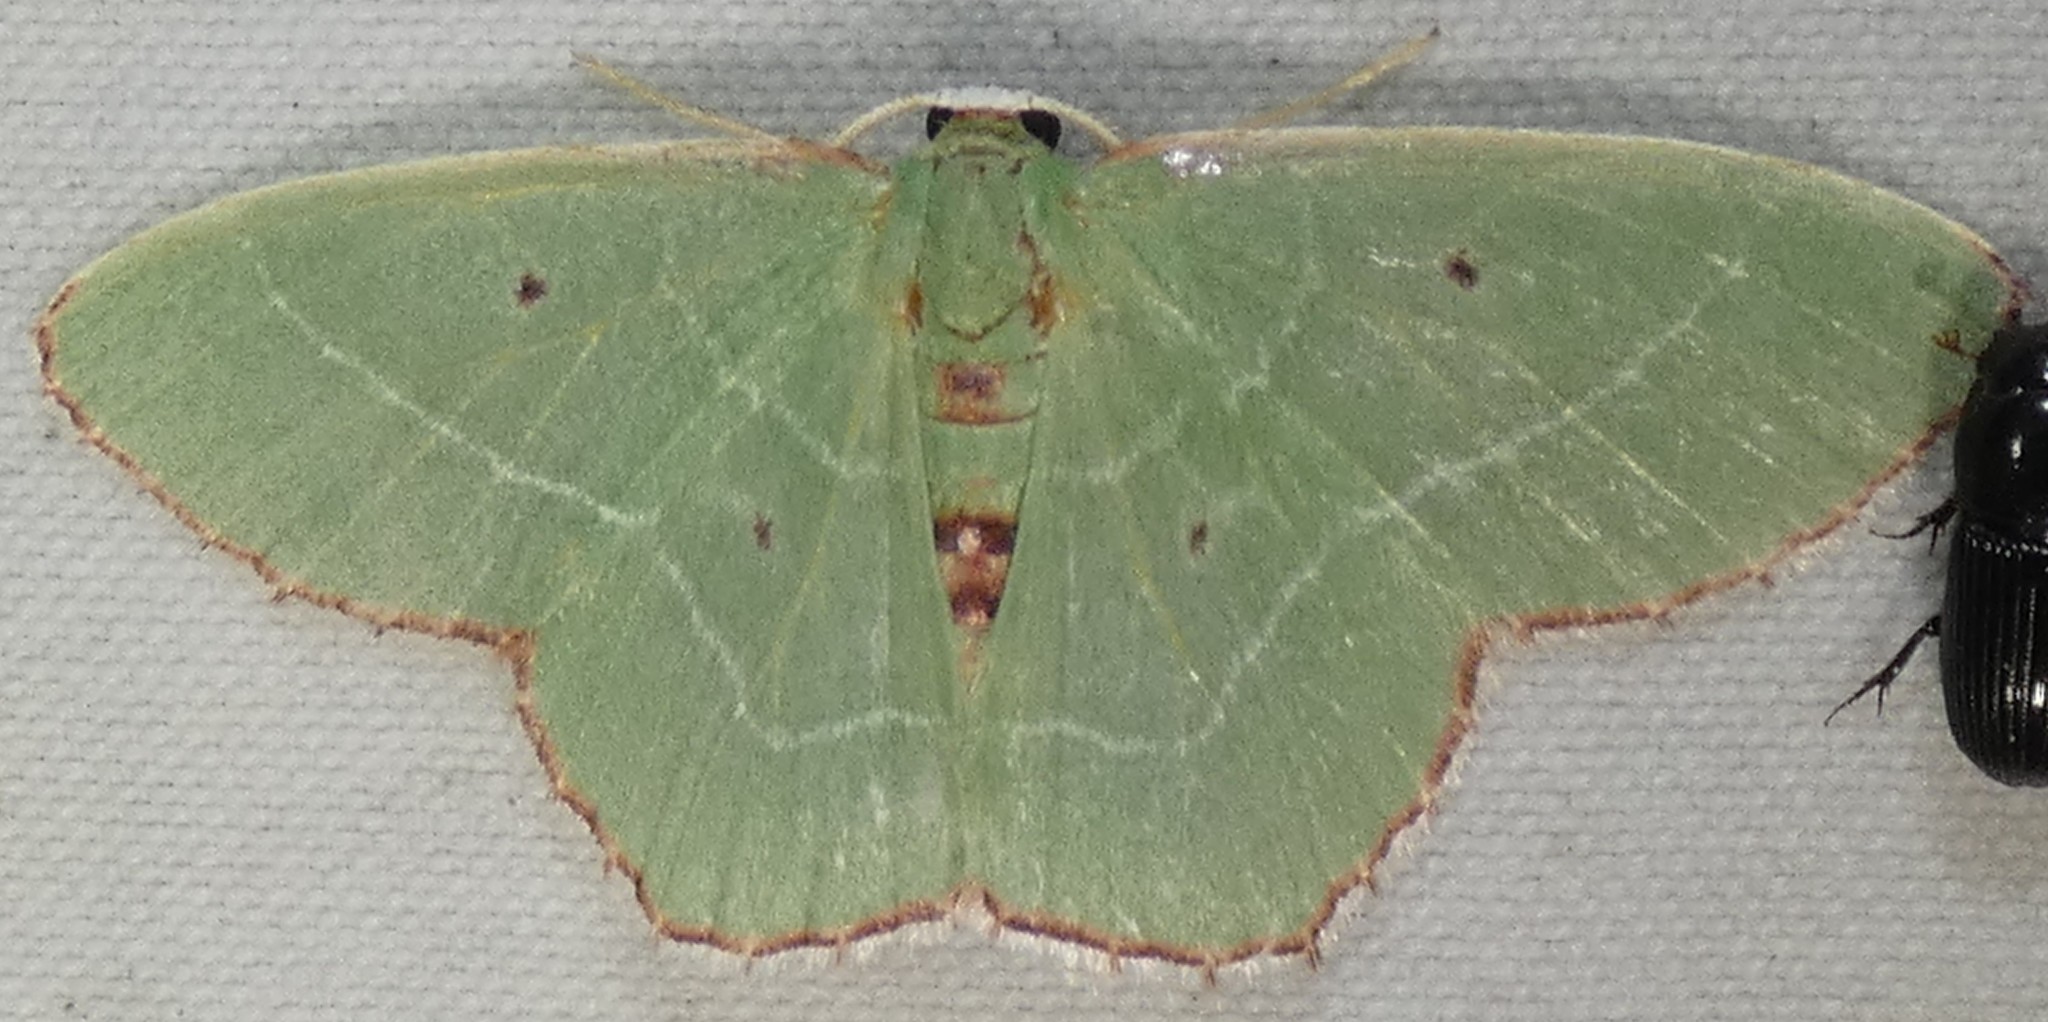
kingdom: Animalia
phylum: Arthropoda
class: Insecta
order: Lepidoptera
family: Geometridae
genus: Nemoria
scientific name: Nemoria saturiba
